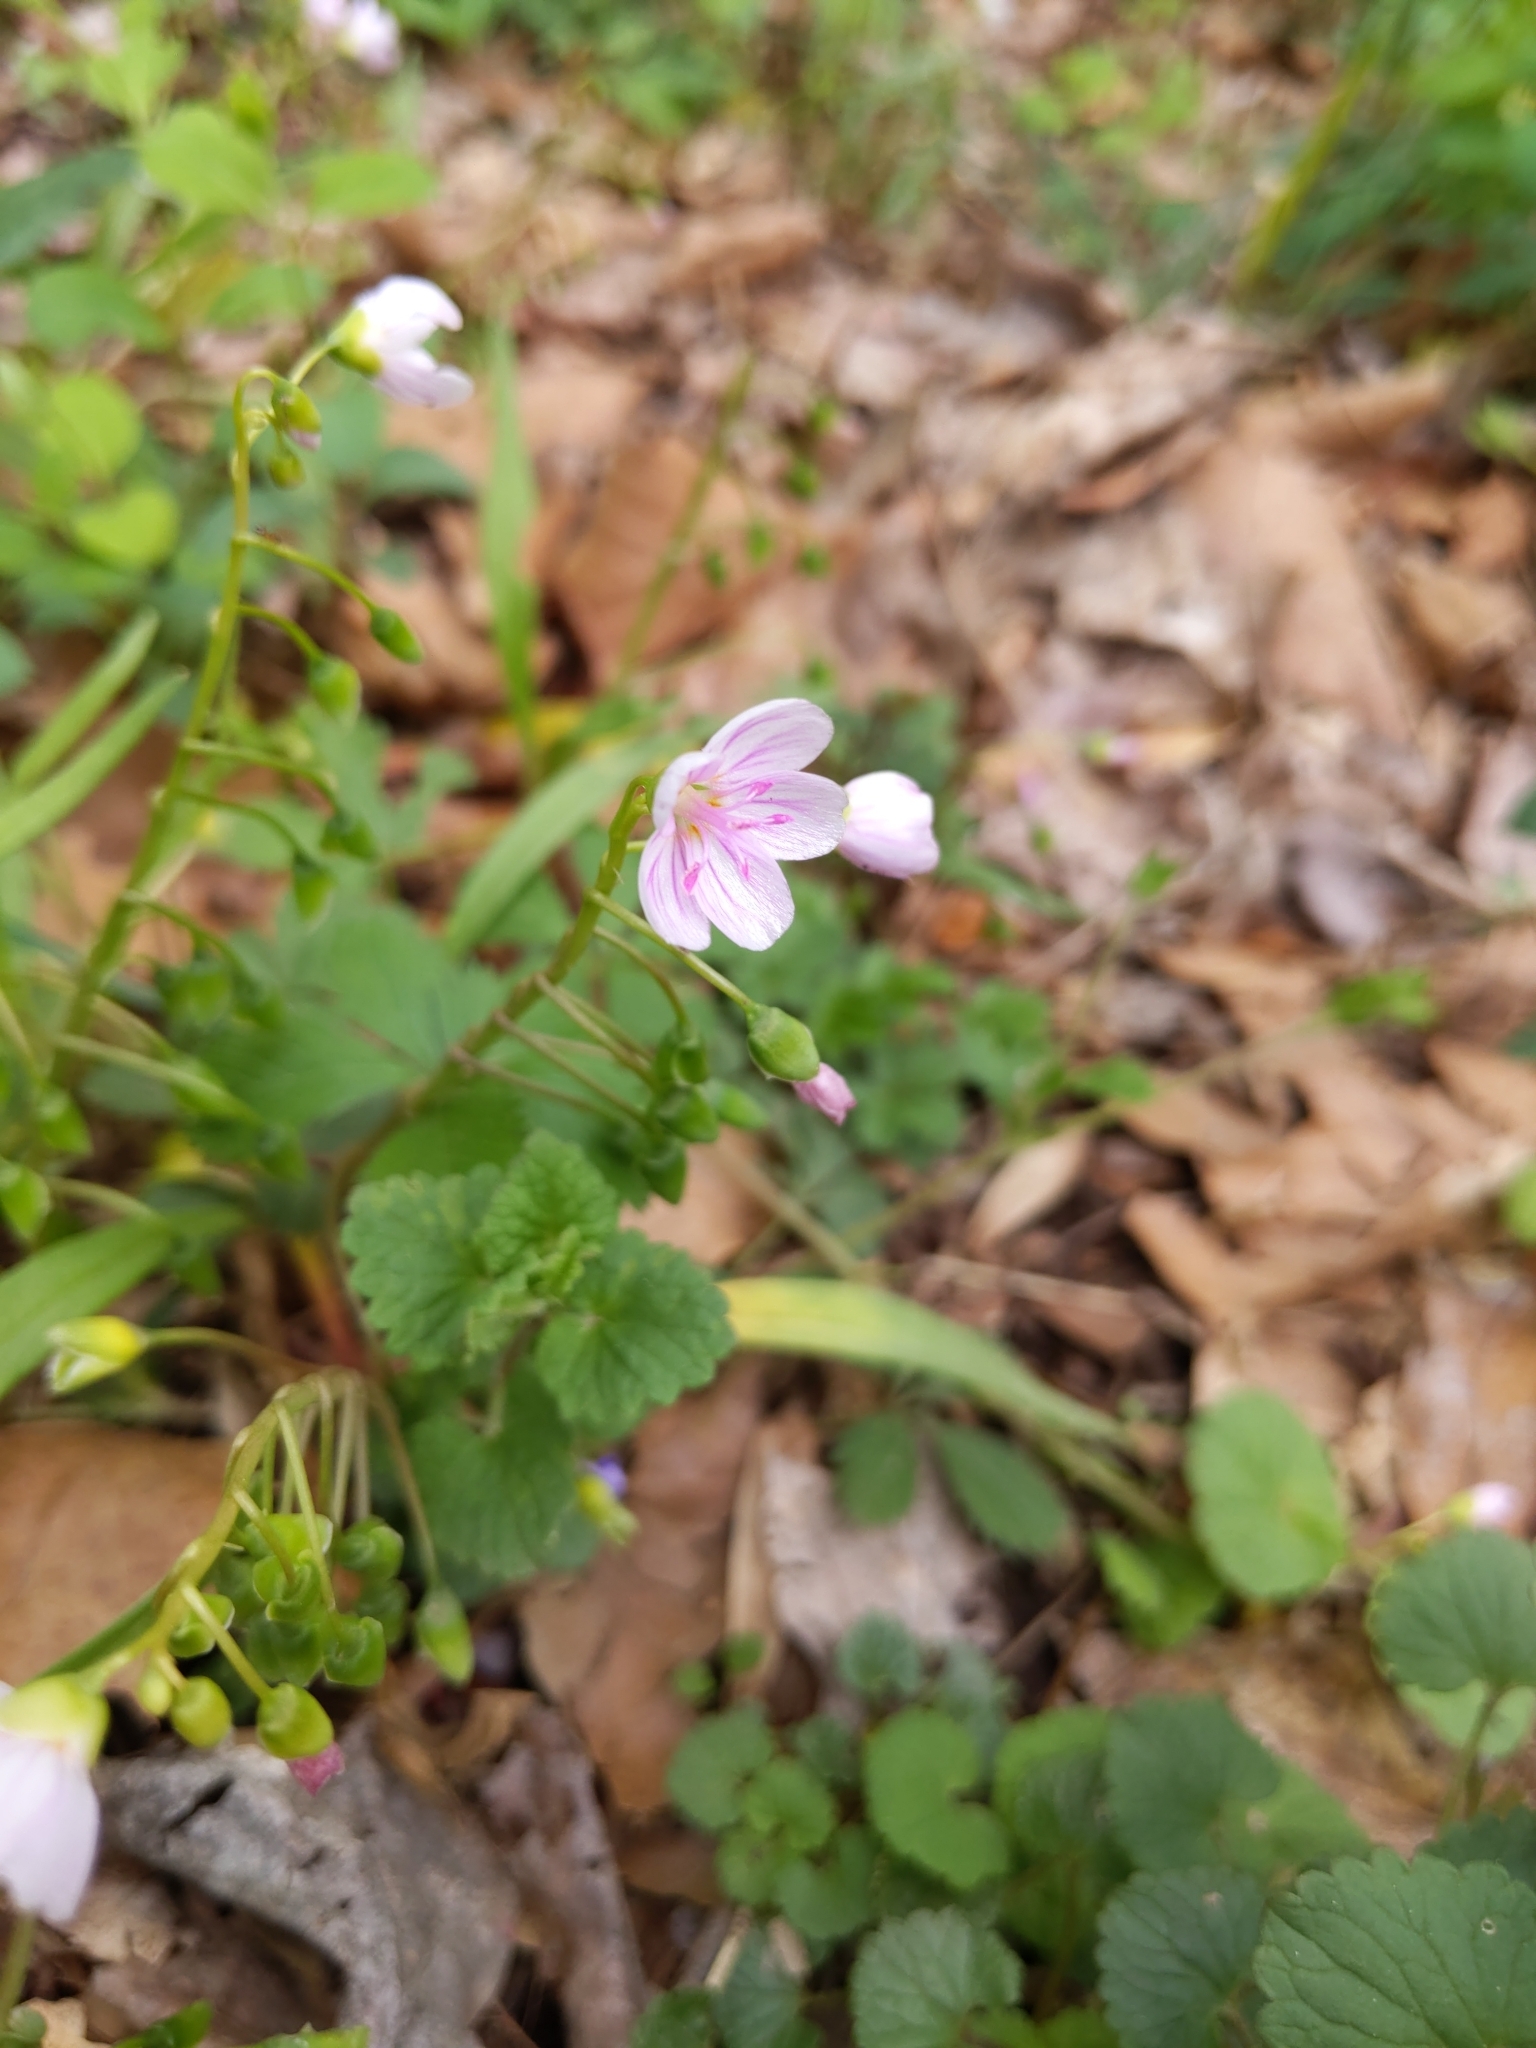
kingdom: Plantae
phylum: Tracheophyta
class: Magnoliopsida
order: Caryophyllales
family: Montiaceae
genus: Claytonia
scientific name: Claytonia virginica
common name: Virginia springbeauty
